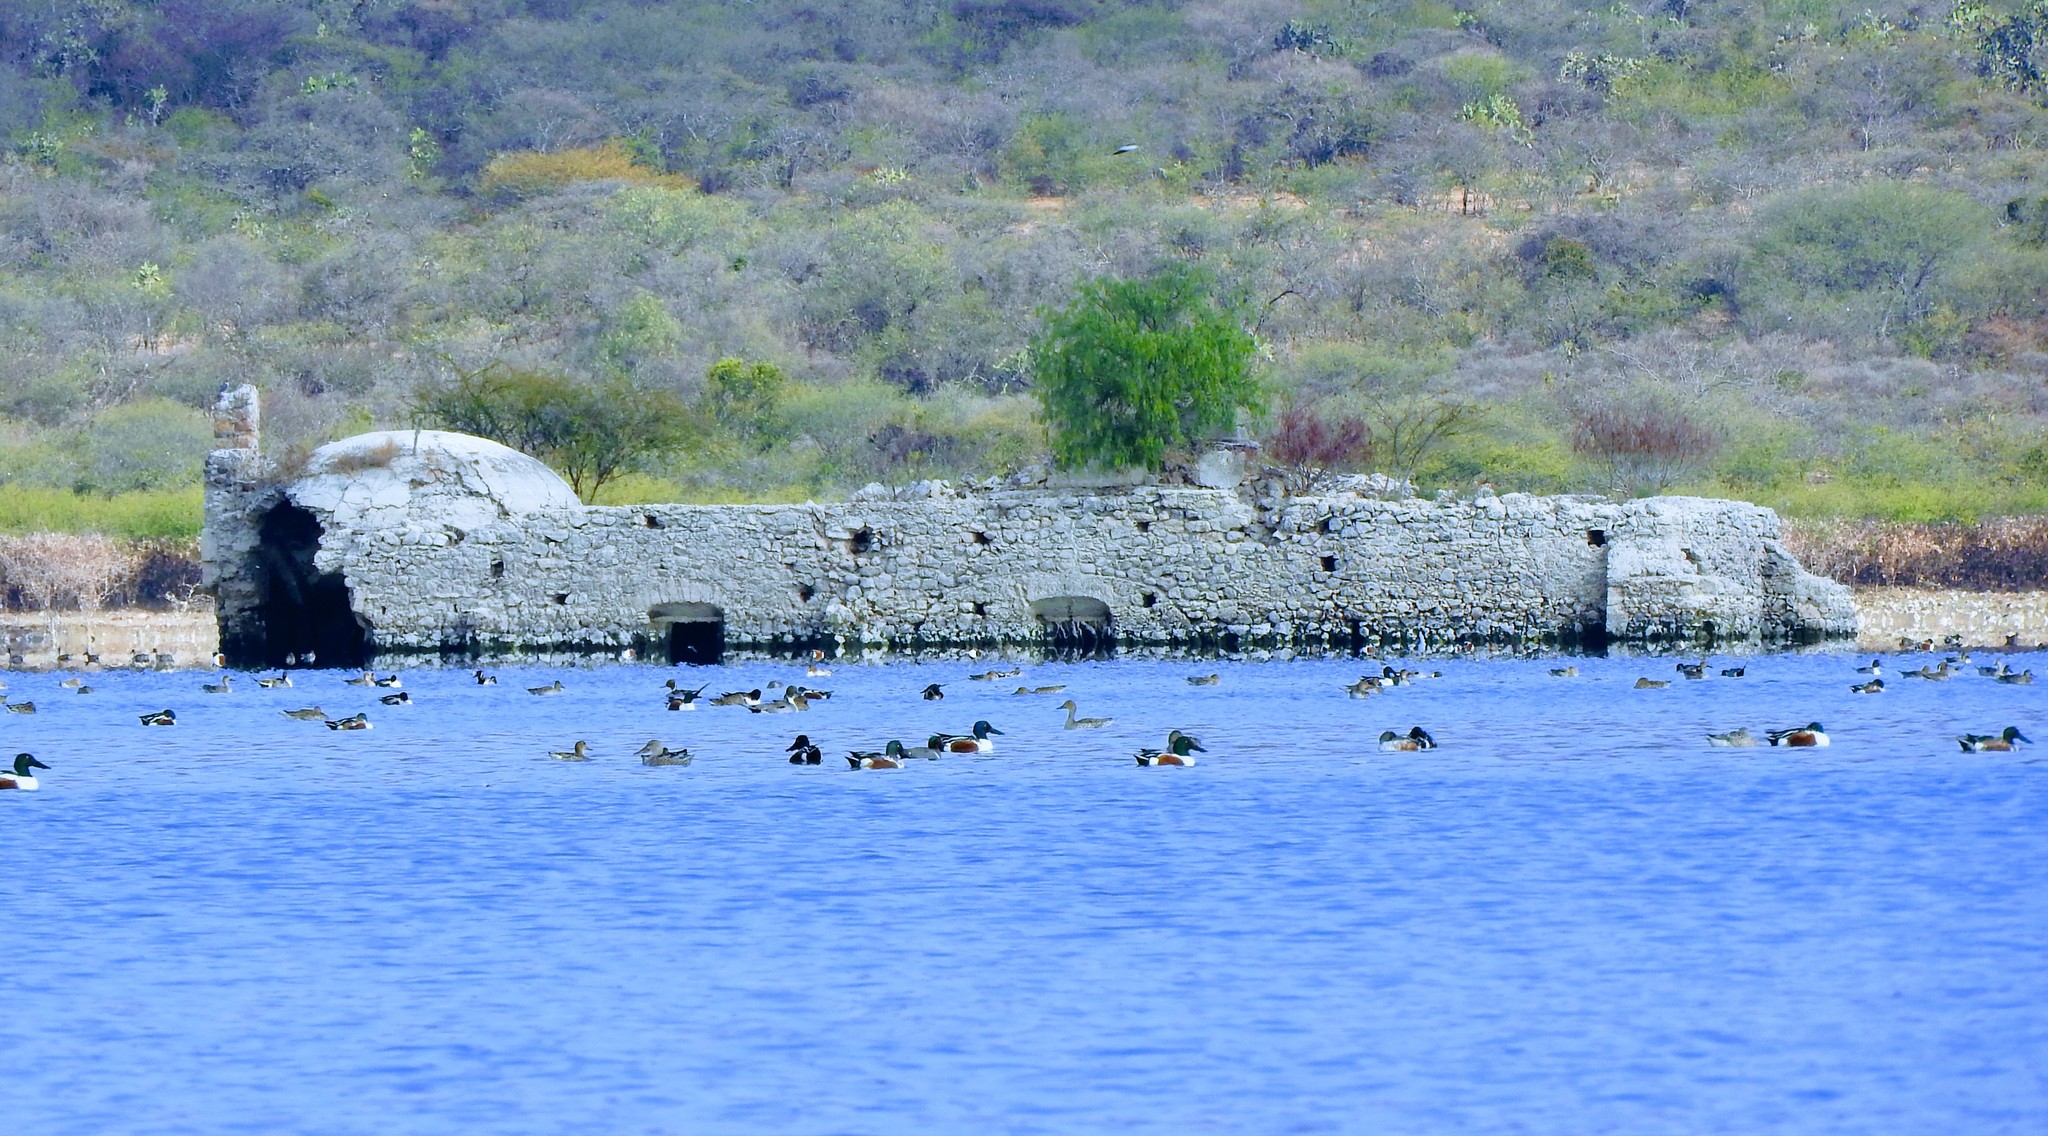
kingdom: Animalia
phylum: Chordata
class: Aves
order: Anseriformes
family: Anatidae
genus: Spatula
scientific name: Spatula clypeata
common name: Northern shoveler
